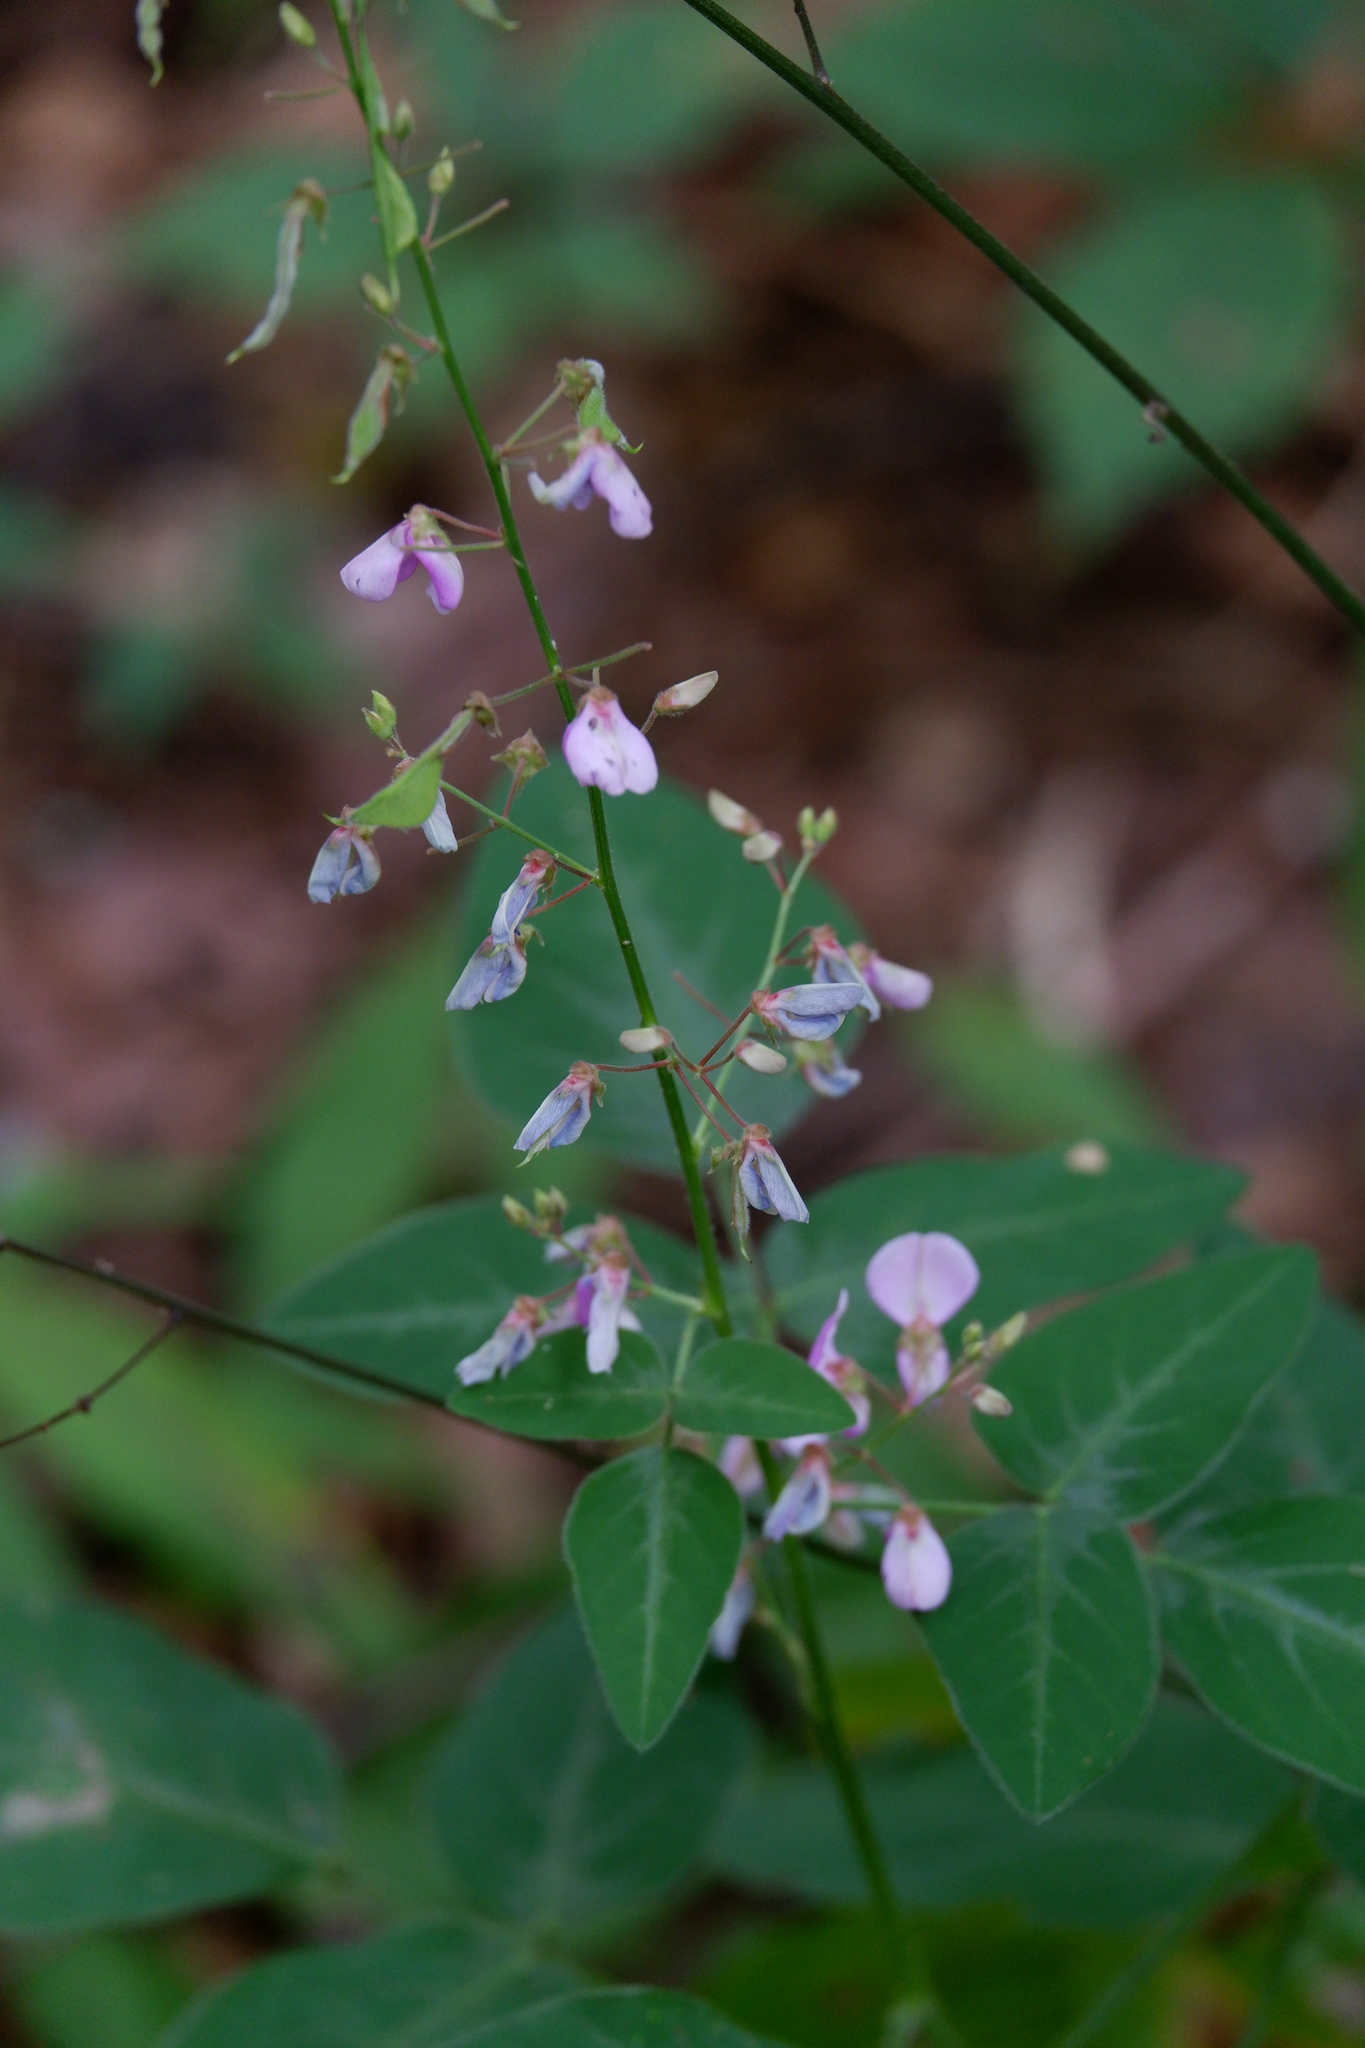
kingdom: Plantae
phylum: Tracheophyta
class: Magnoliopsida
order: Fabales
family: Fabaceae
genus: Desmodium
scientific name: Desmodium perplexum
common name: Perplexed tick trefoil
